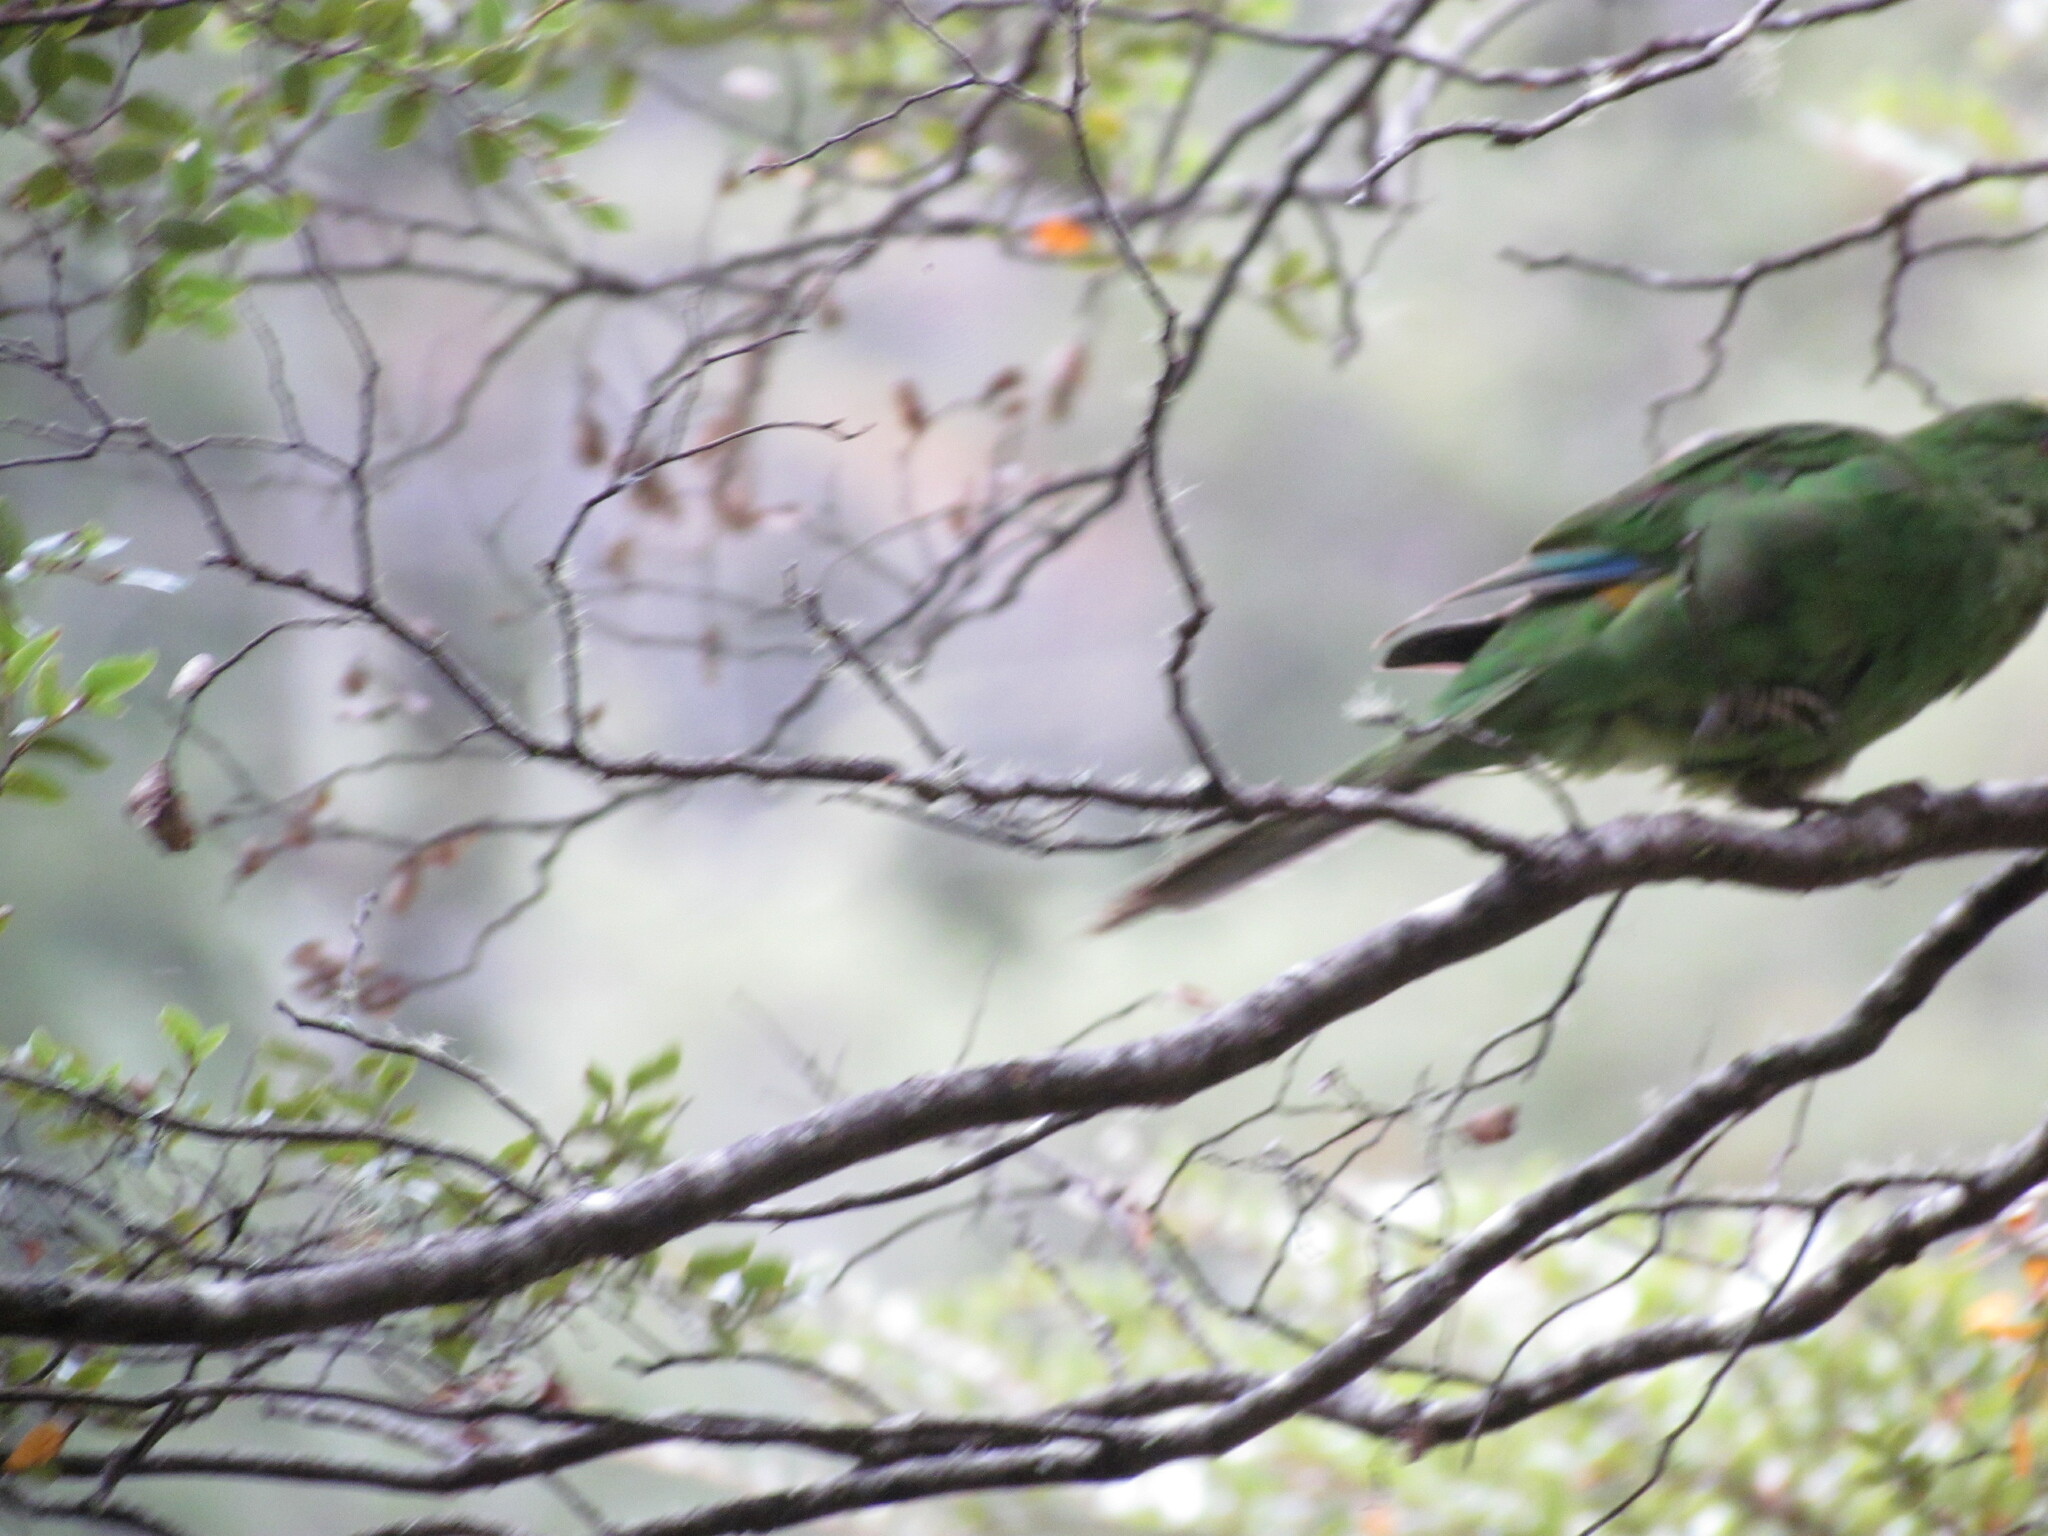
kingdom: Animalia
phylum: Chordata
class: Aves
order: Psittaciformes
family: Psittacidae
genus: Cyanoramphus
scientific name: Cyanoramphus malherbi
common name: Malherbe's parakeet
